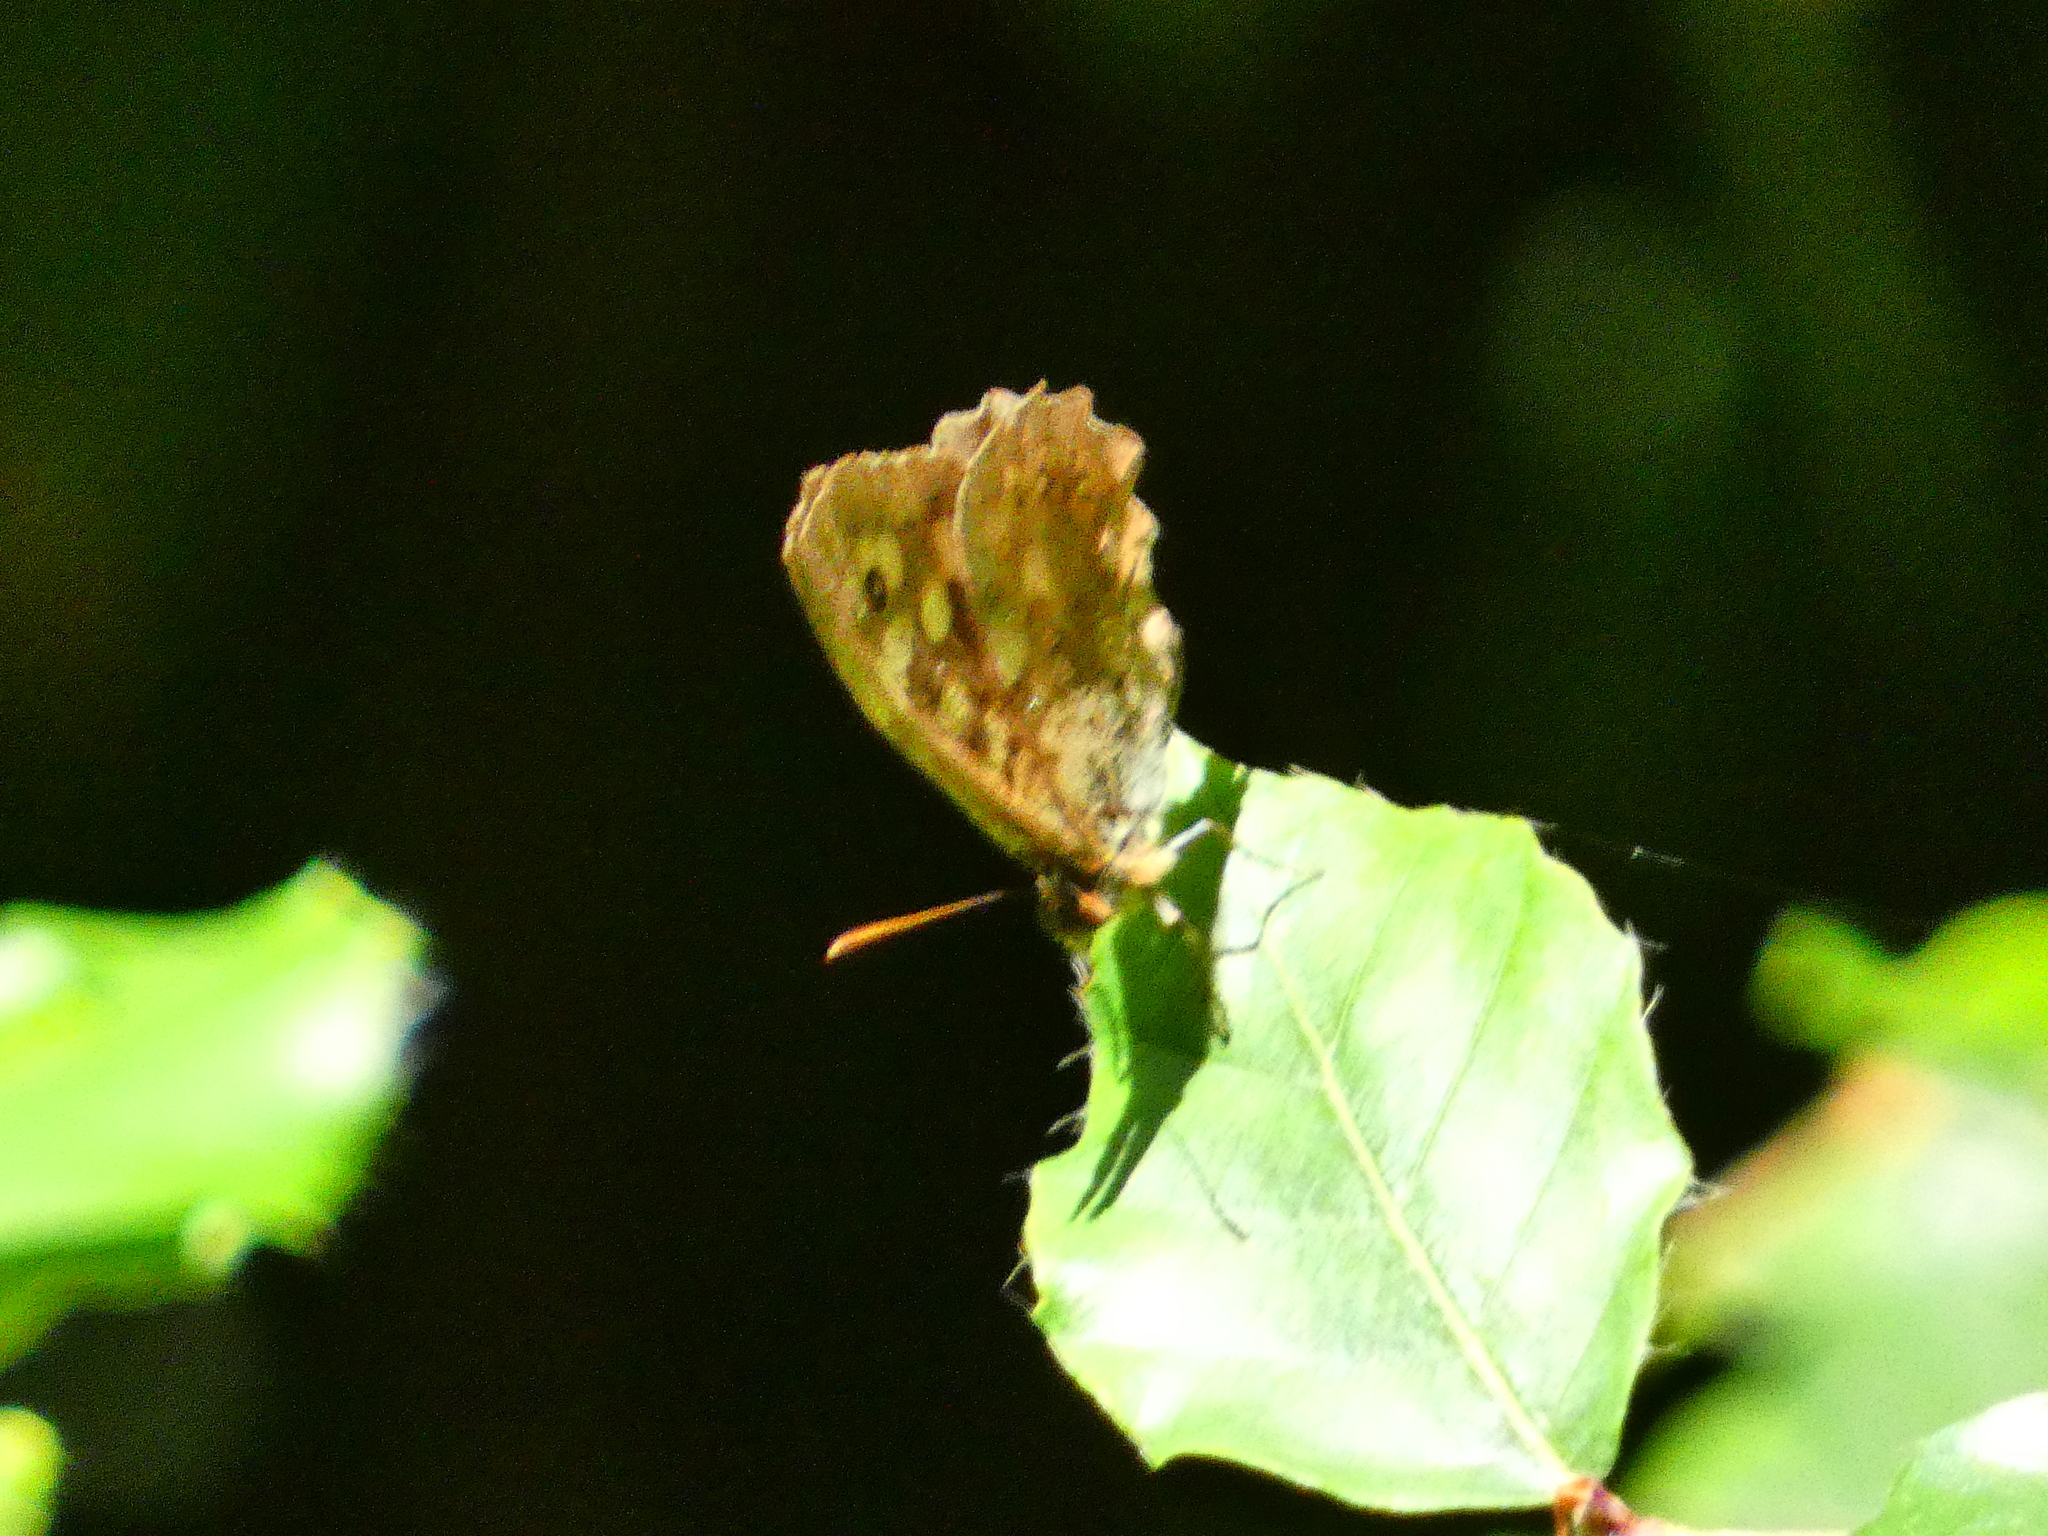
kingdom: Animalia
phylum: Arthropoda
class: Insecta
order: Lepidoptera
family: Nymphalidae
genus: Pararge
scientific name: Pararge aegeria
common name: Speckled wood
